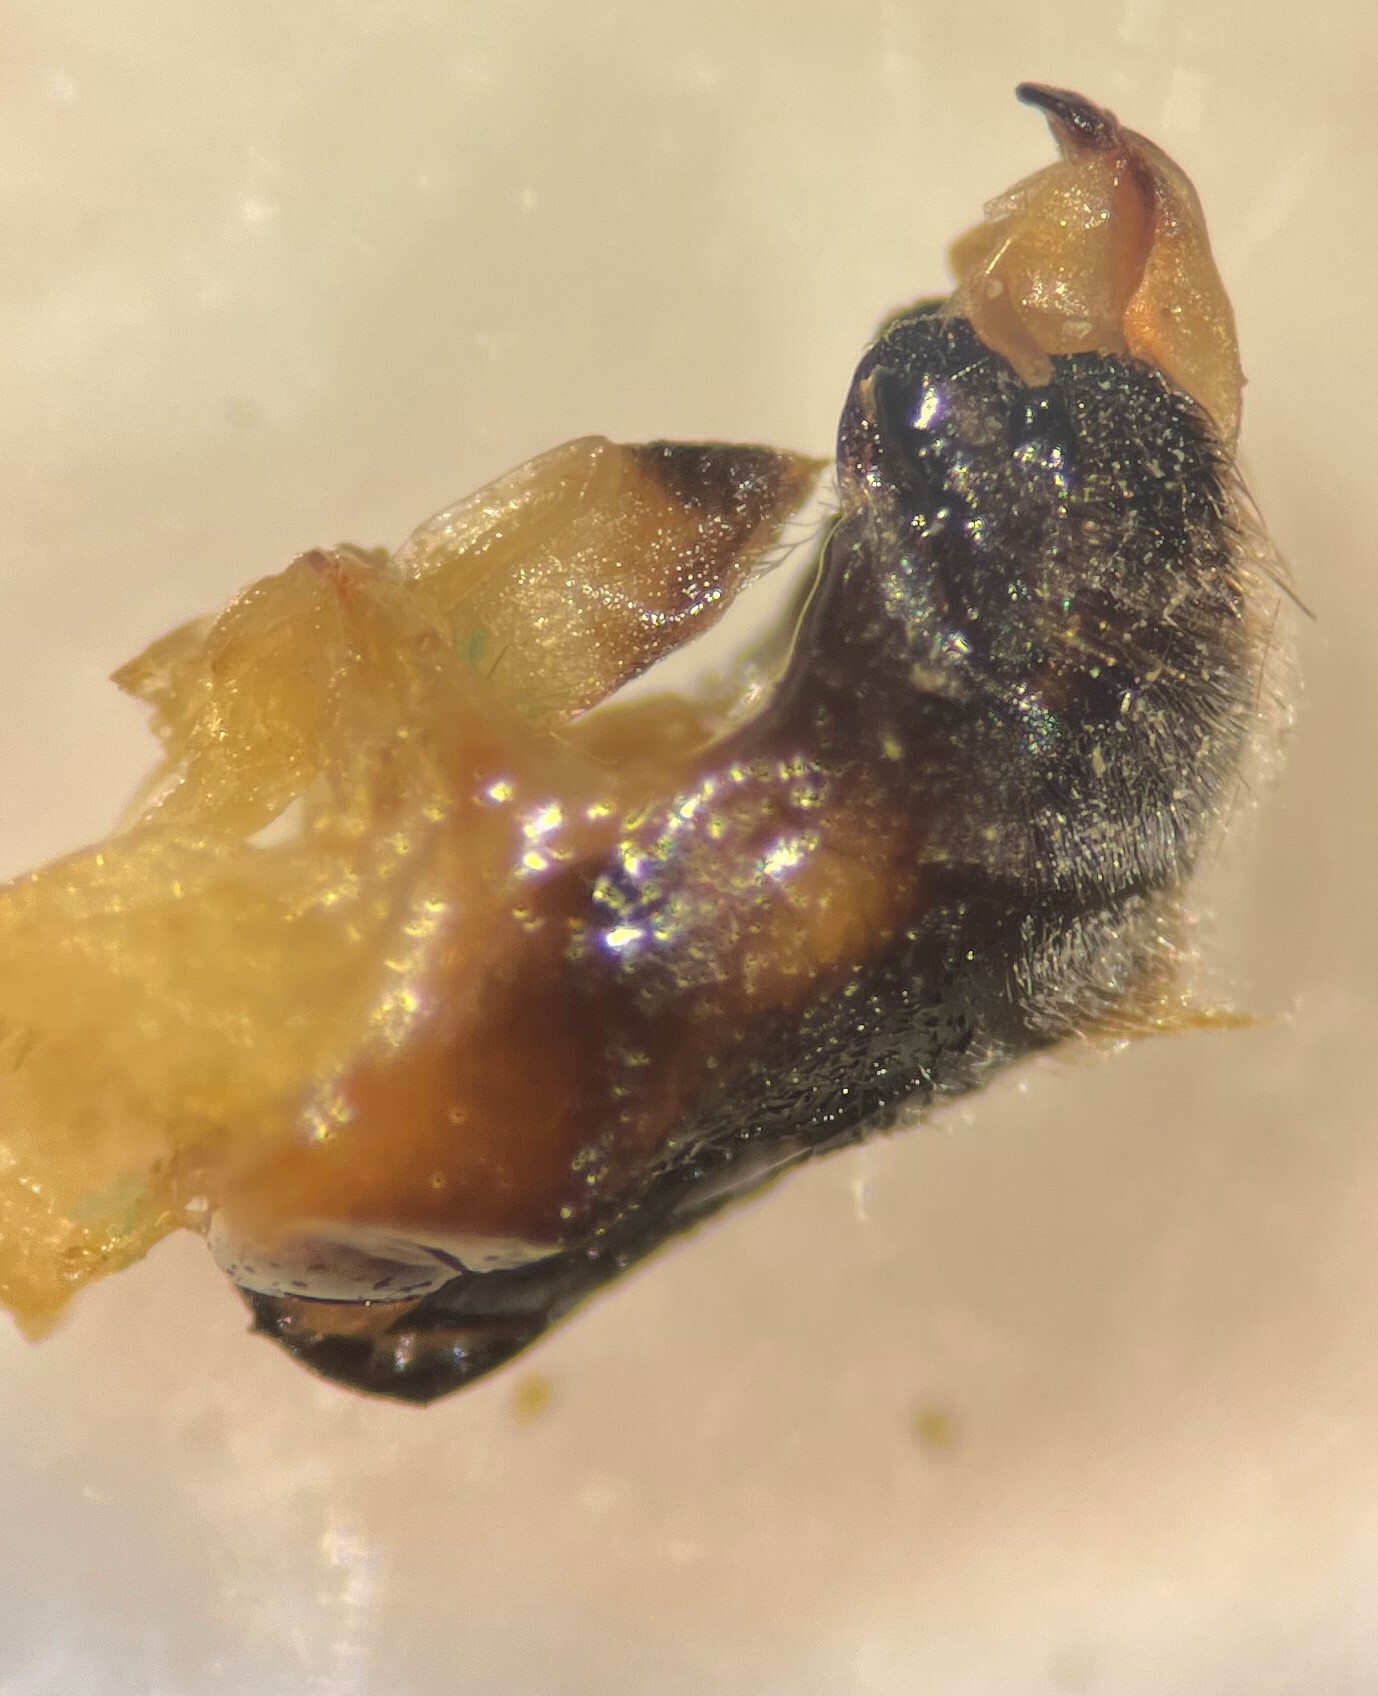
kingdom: Animalia
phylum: Arthropoda
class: Insecta
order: Hemiptera
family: Notonectidae
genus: Notonecta
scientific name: Notonecta undulata
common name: Grousewinged backswimmer
